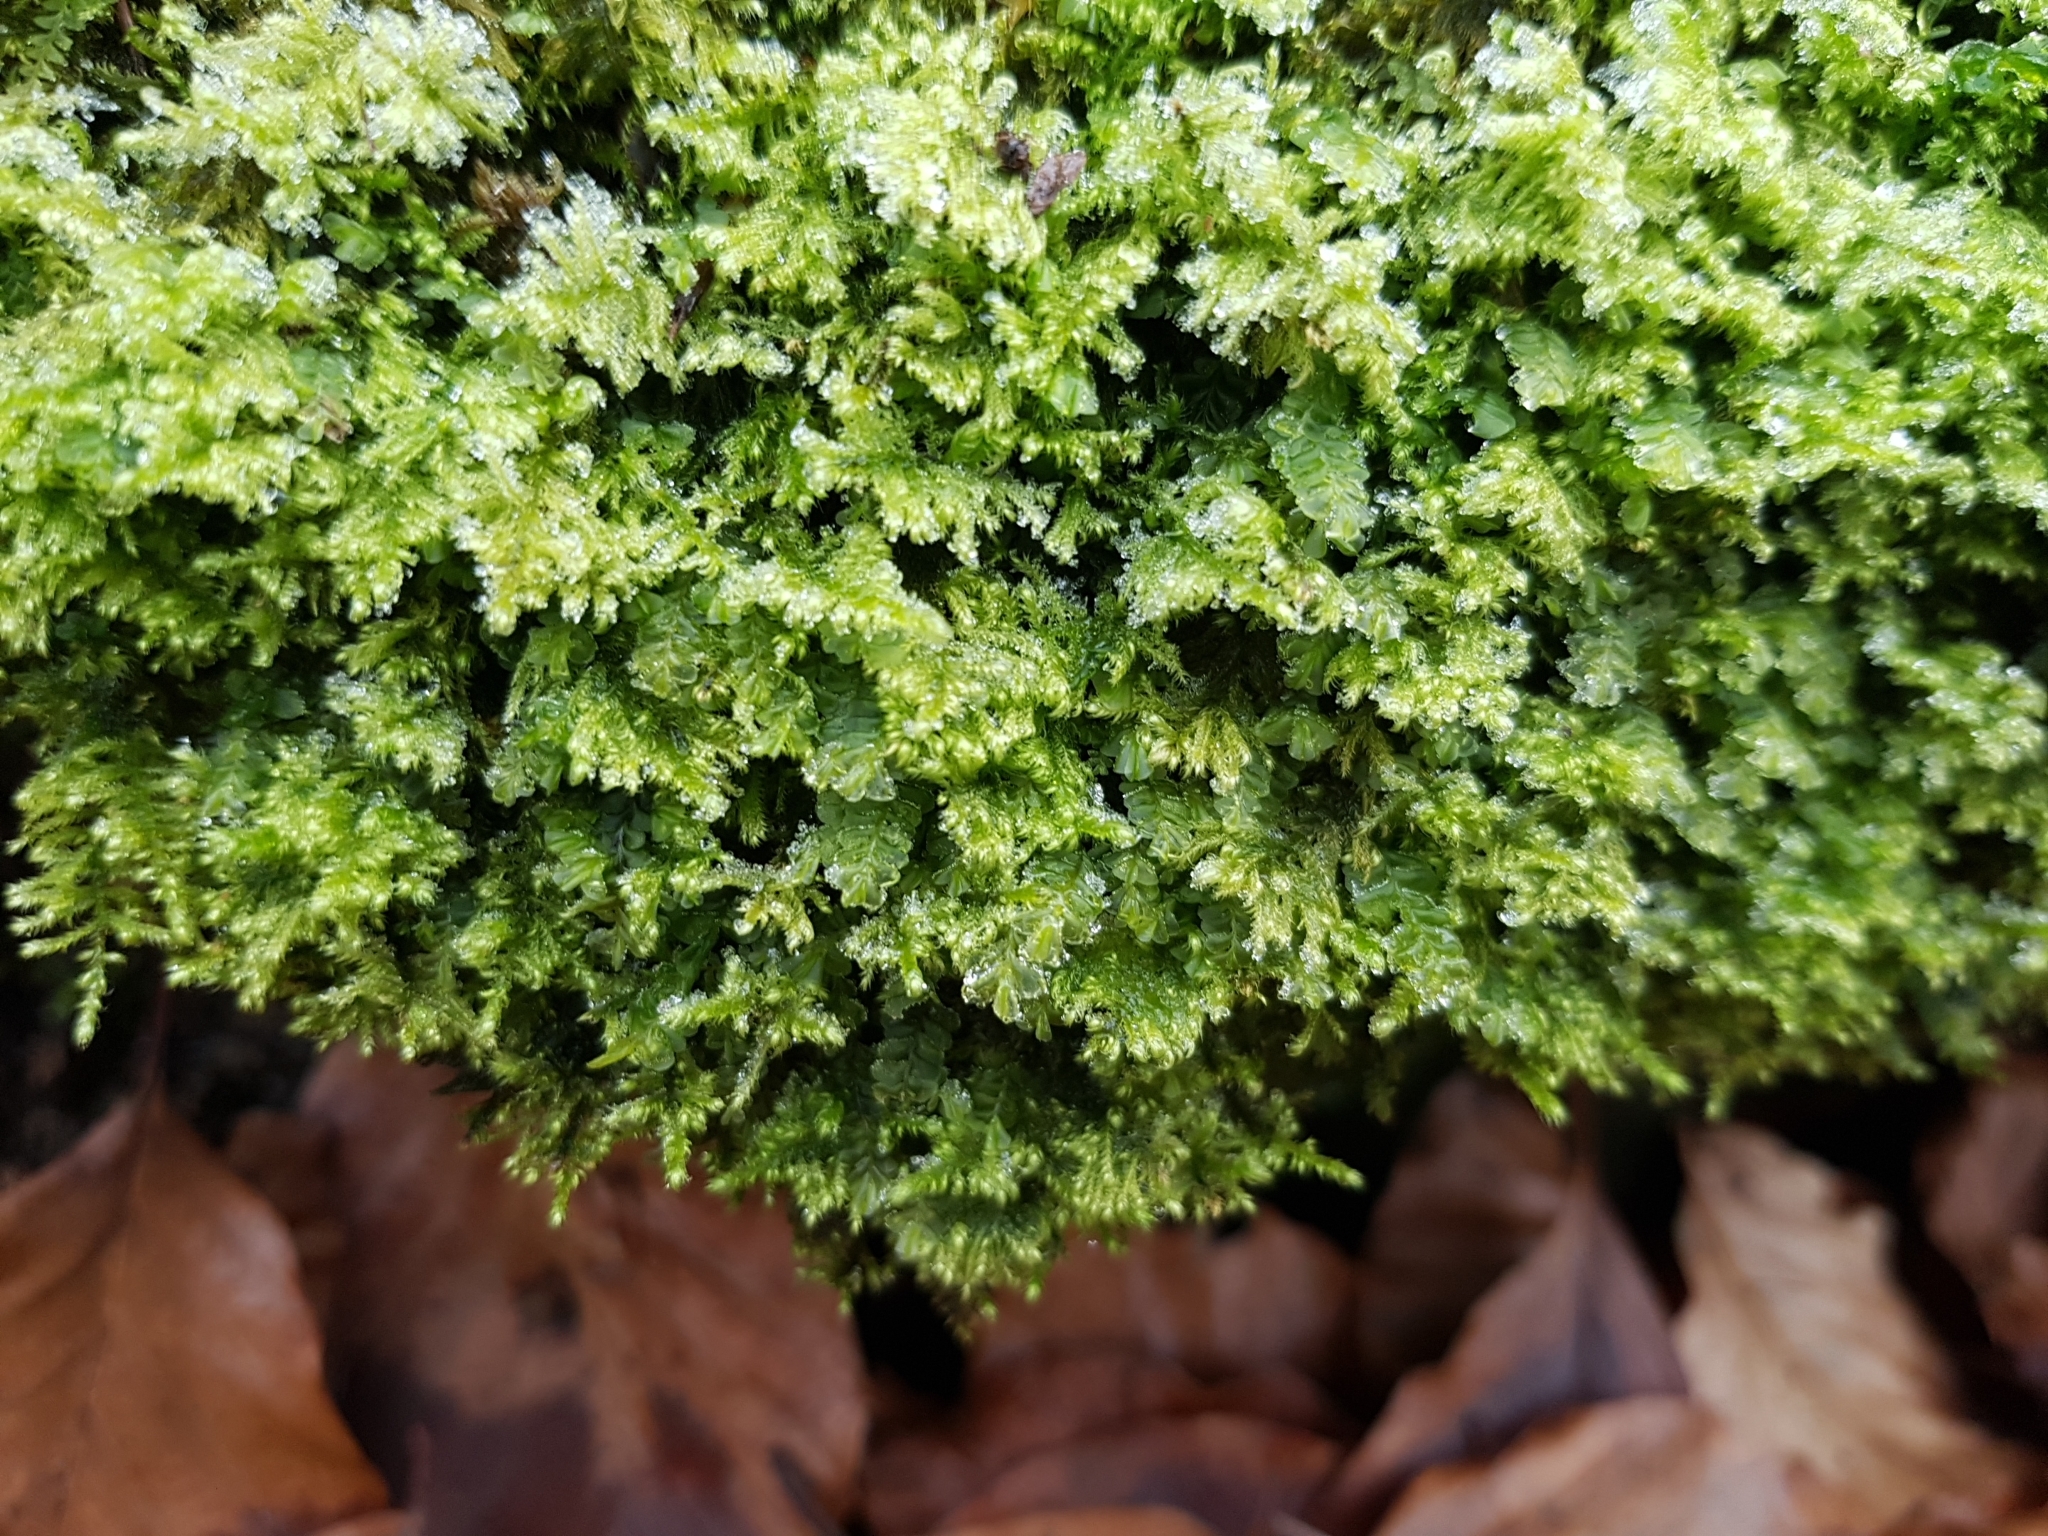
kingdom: Plantae
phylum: Bryophyta
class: Bryopsida
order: Hypnales
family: Myuriaceae
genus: Ctenidium
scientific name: Ctenidium molluscum
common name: Chalk comb-moss
